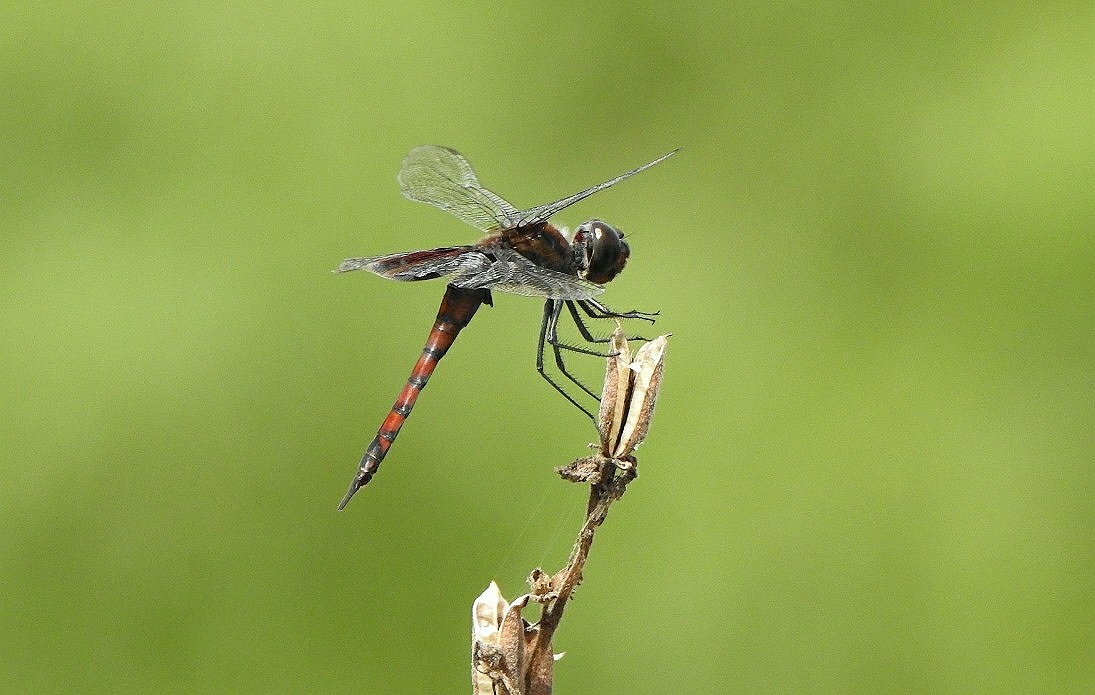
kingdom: Animalia
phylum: Arthropoda
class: Insecta
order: Odonata
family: Libellulidae
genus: Tramea
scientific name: Tramea limbata
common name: Ferruginous glider
